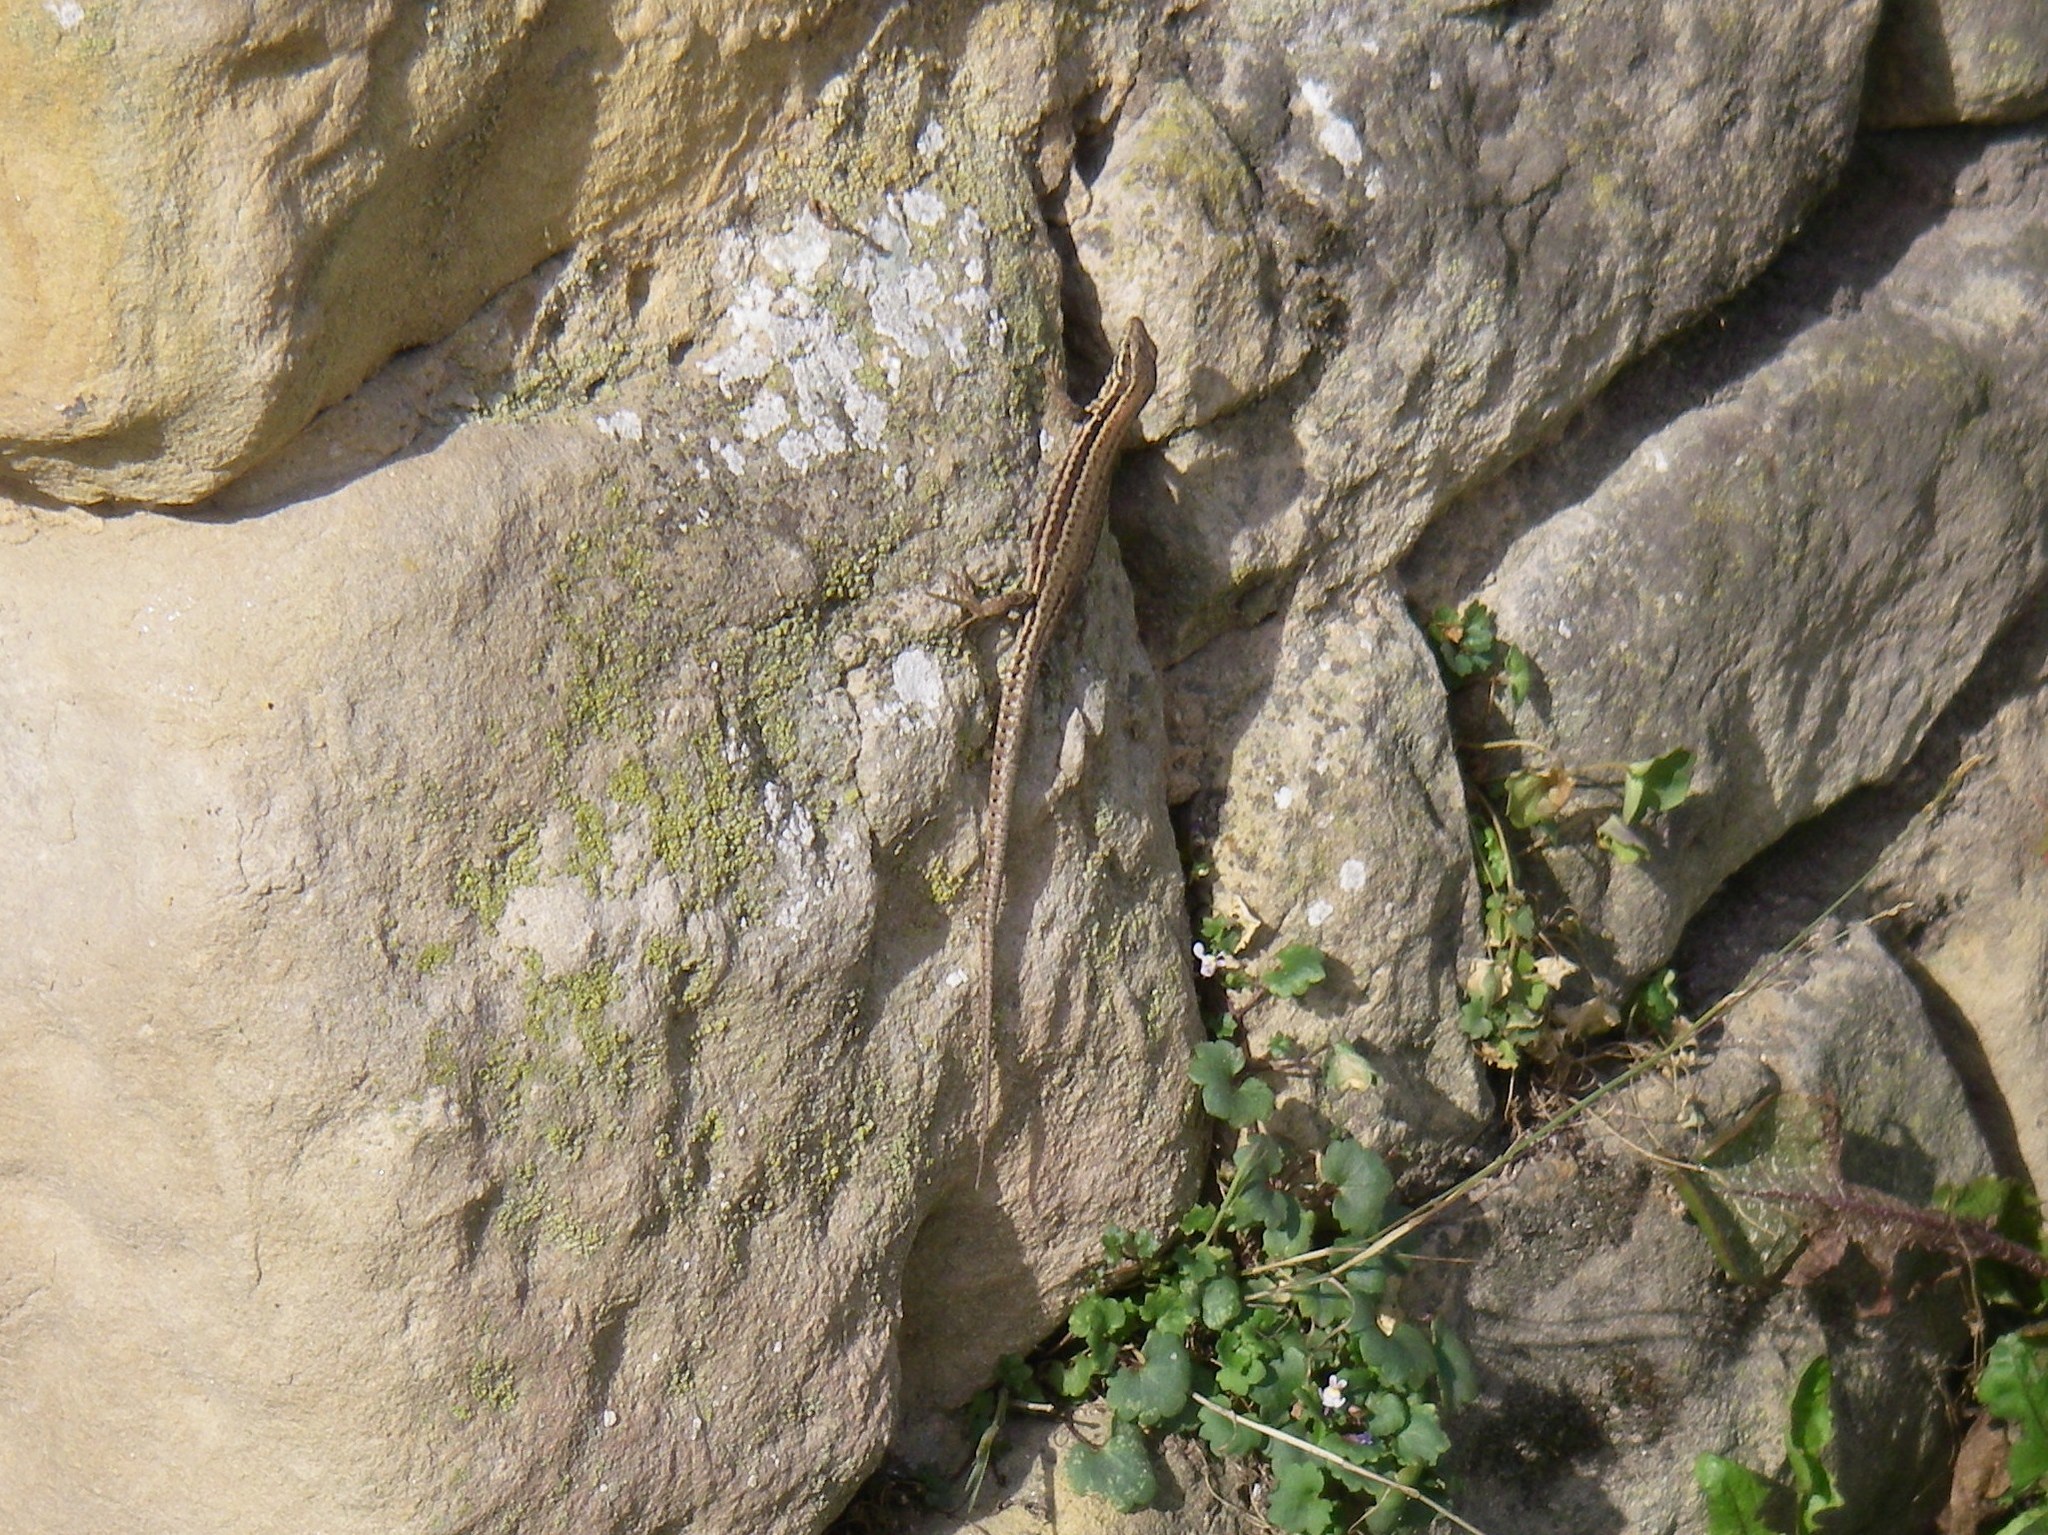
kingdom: Animalia
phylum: Chordata
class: Squamata
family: Lacertidae
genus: Podarcis
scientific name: Podarcis muralis
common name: Common wall lizard
